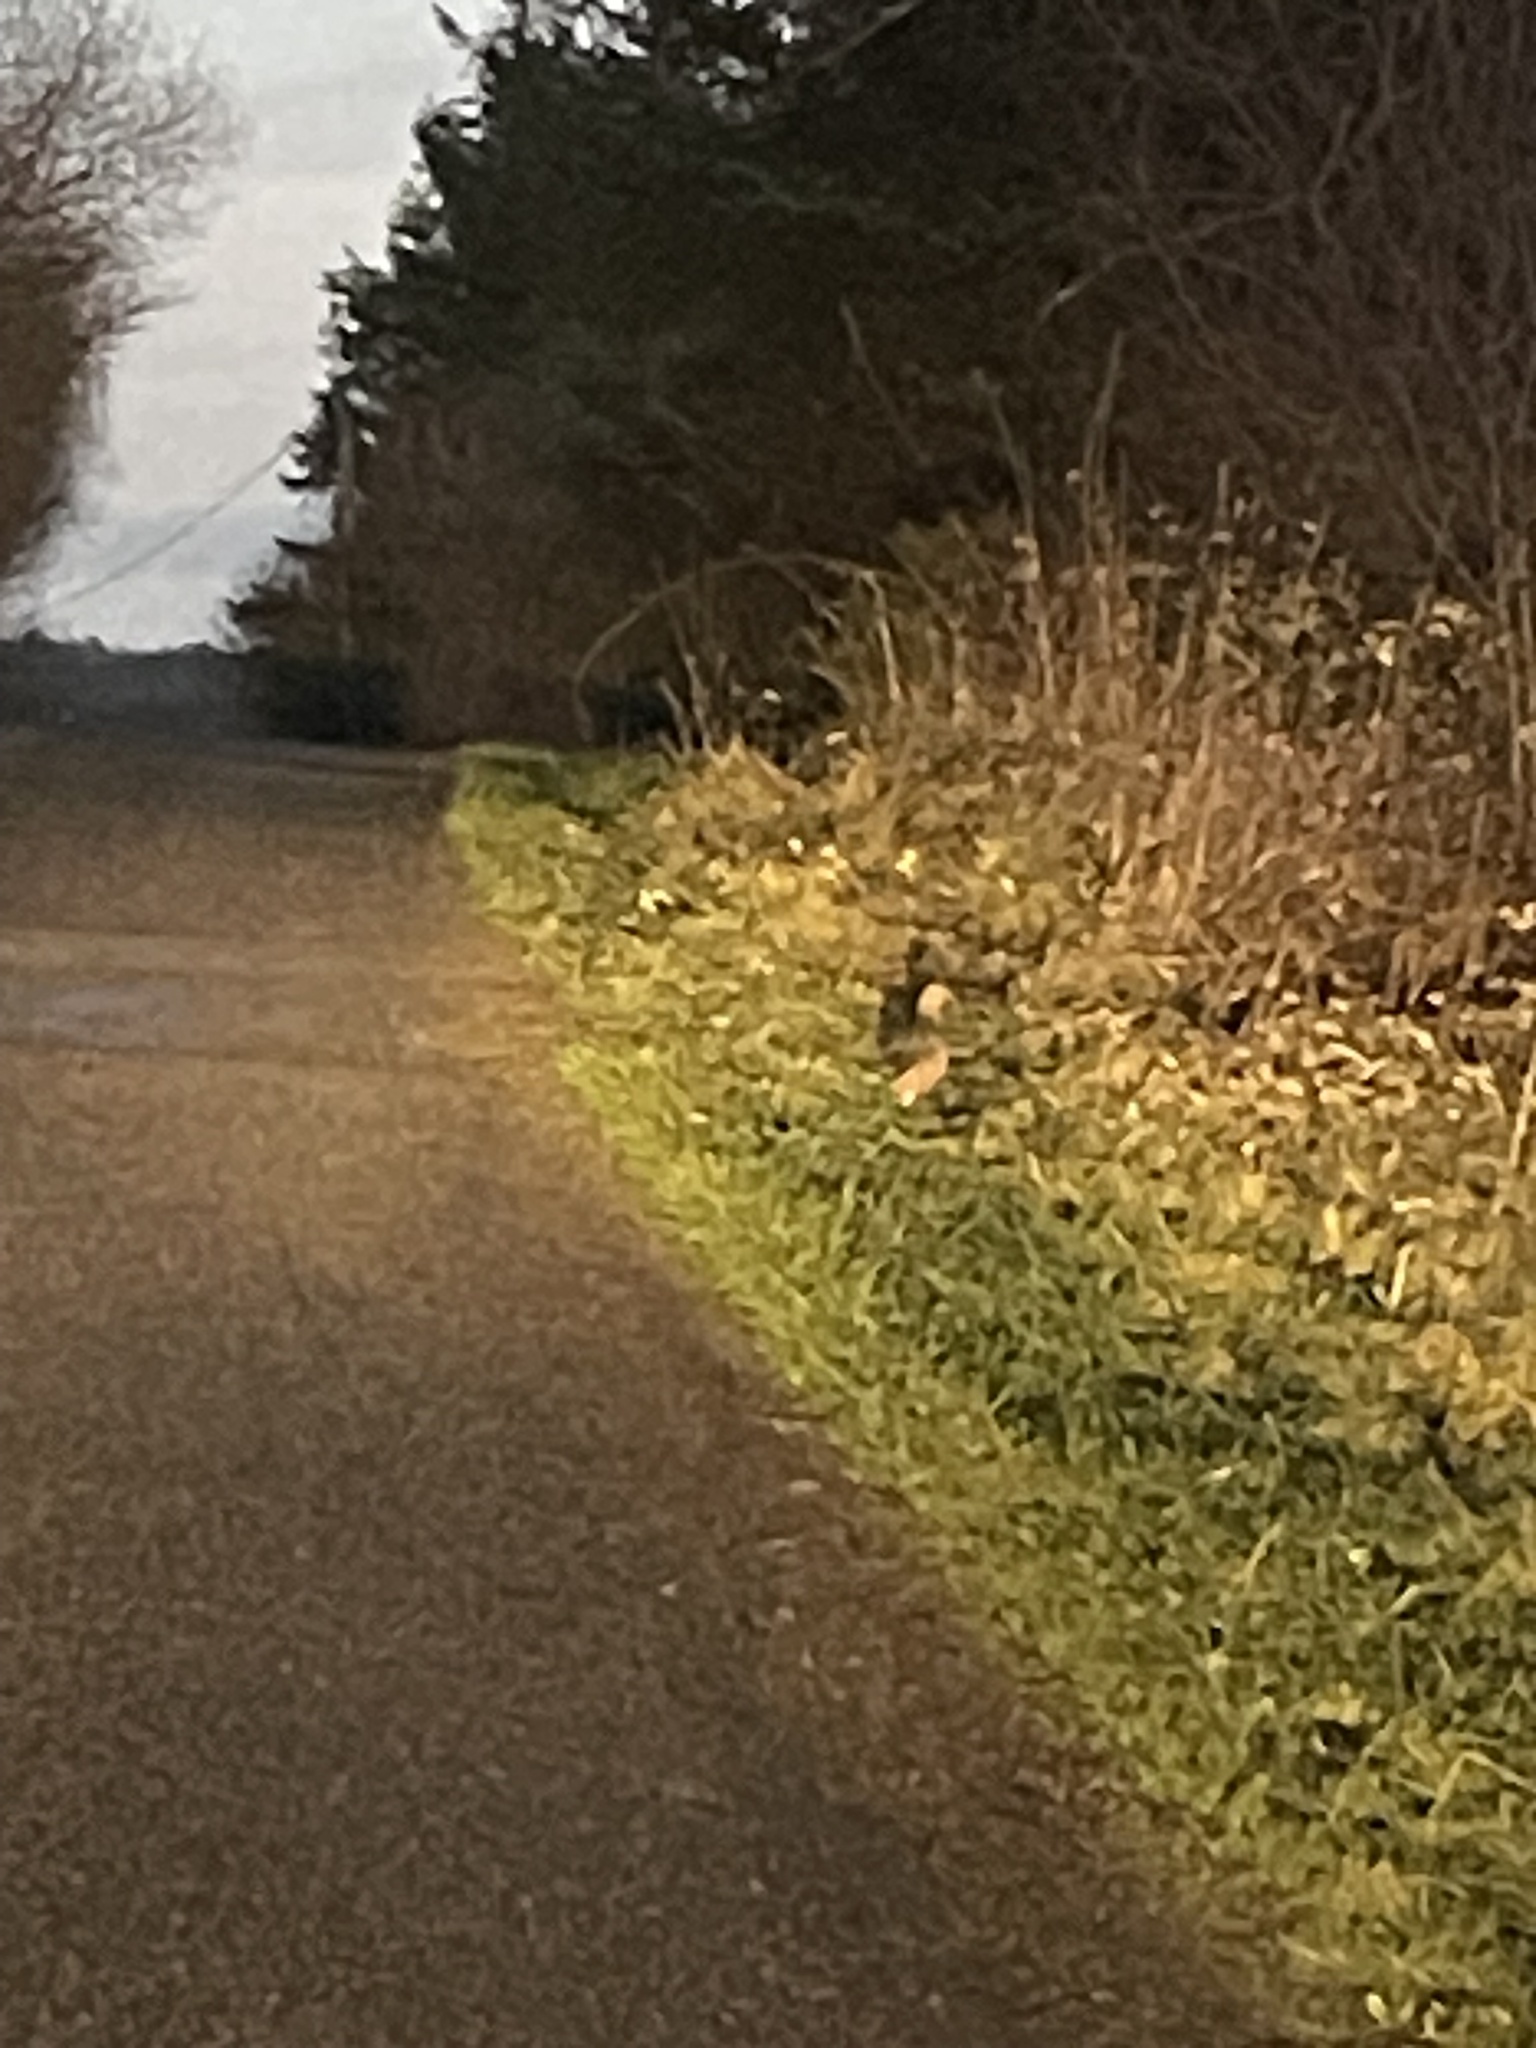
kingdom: Animalia
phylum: Chordata
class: Aves
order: Galliformes
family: Phasianidae
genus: Phasianus
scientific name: Phasianus colchicus
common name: Common pheasant
